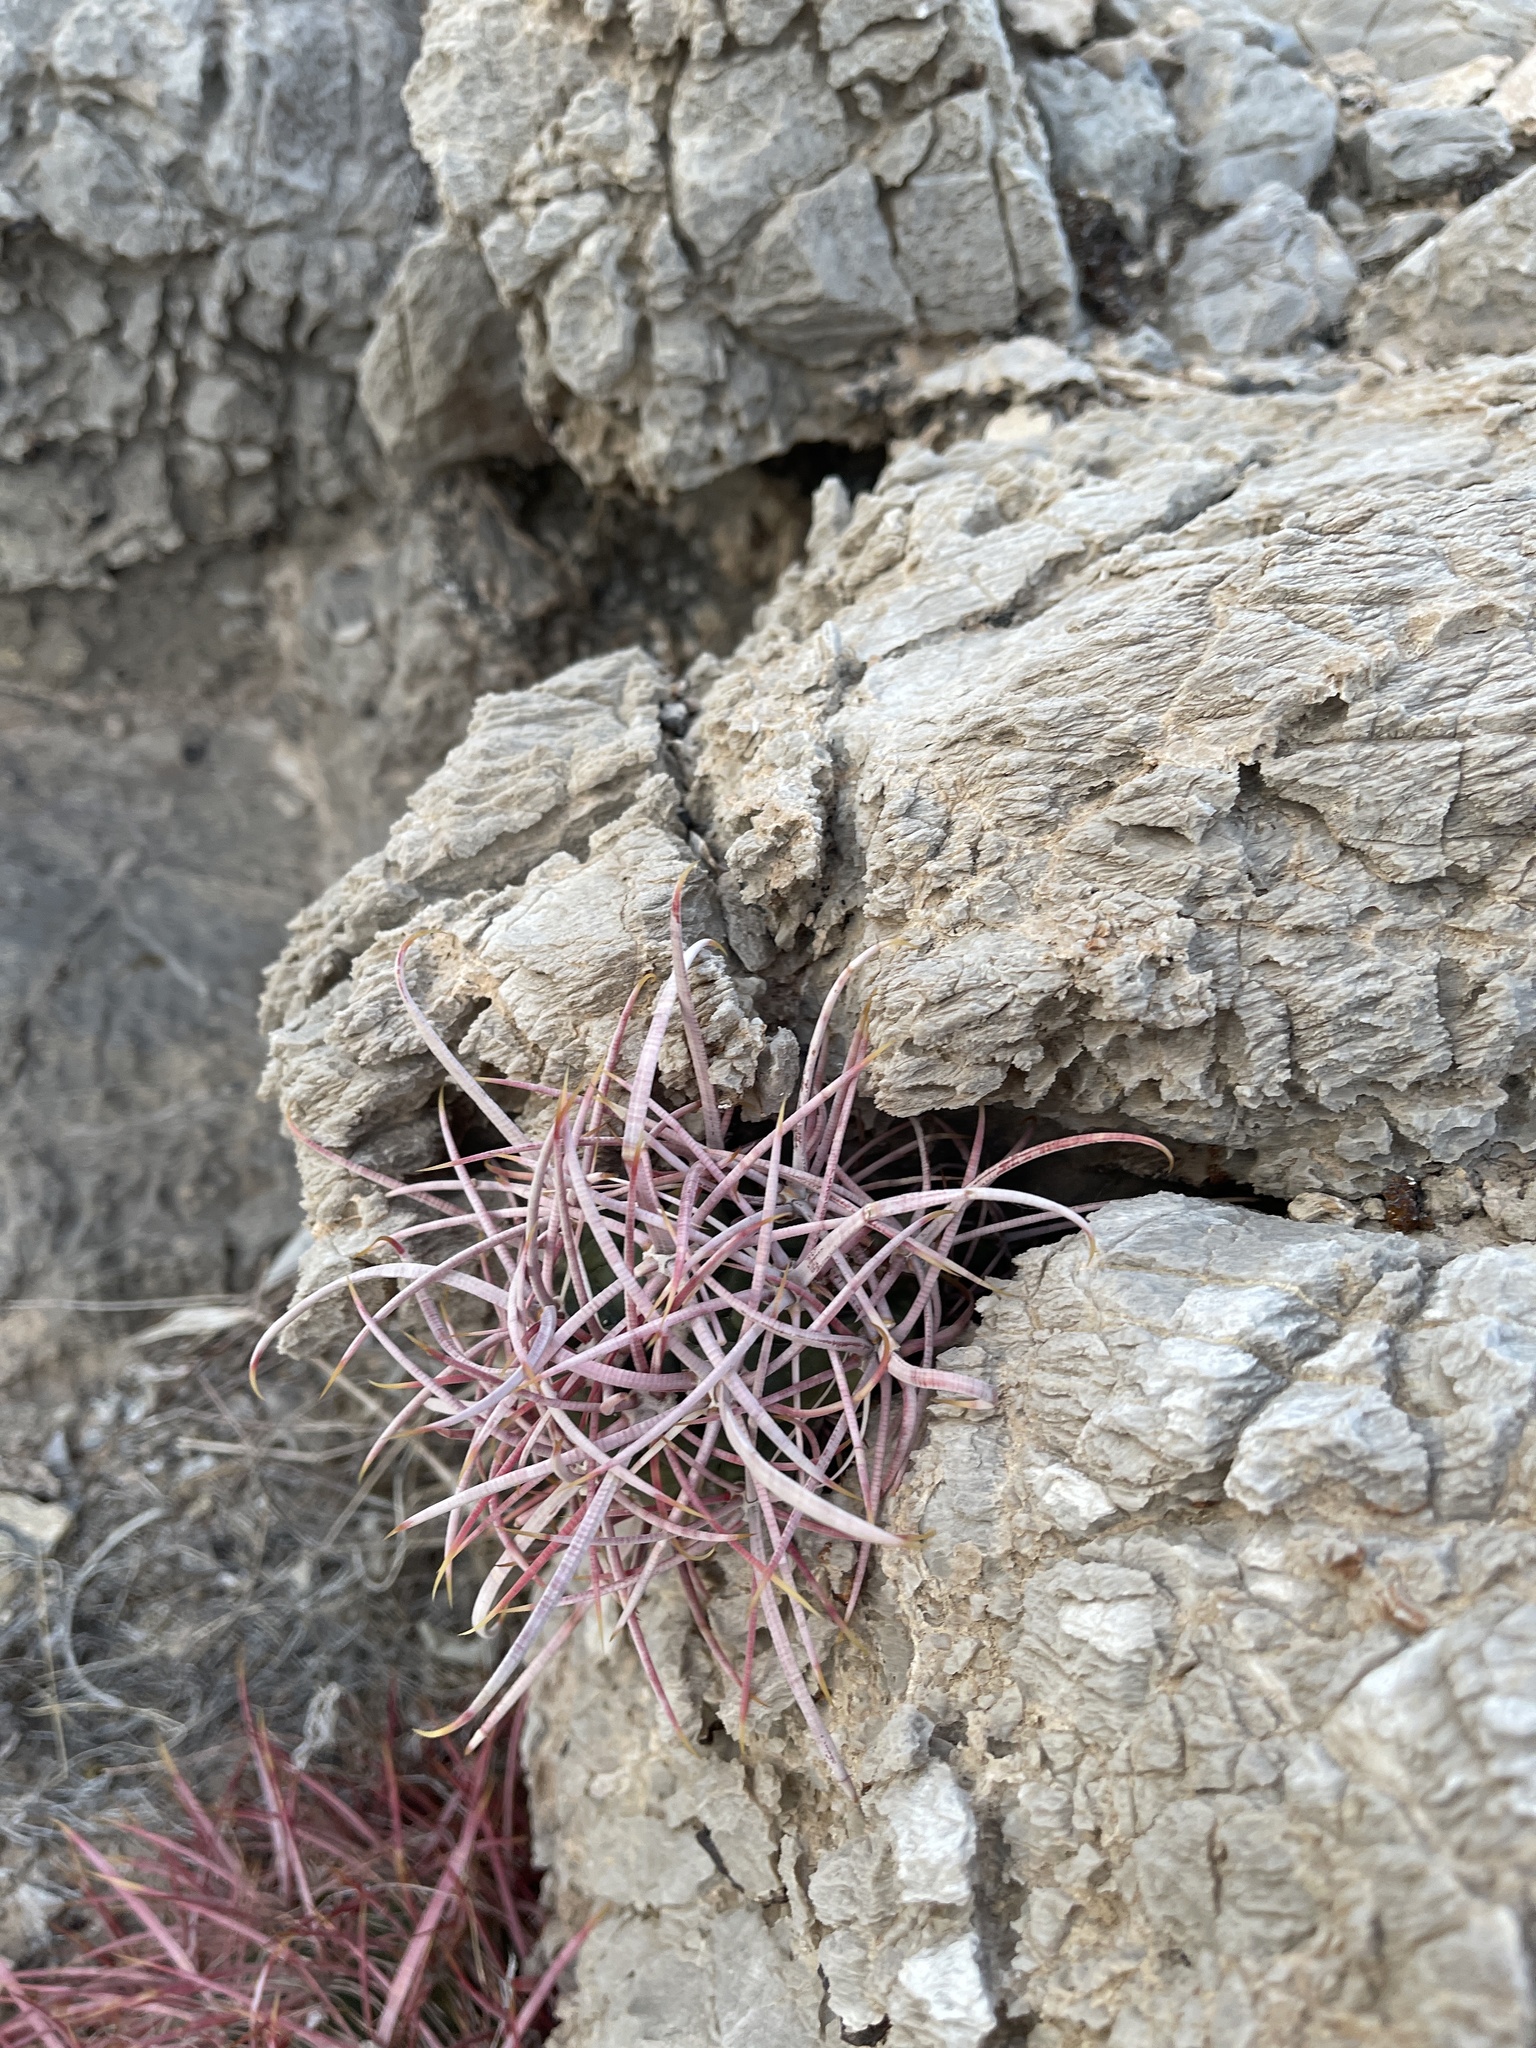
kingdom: Plantae
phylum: Tracheophyta
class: Magnoliopsida
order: Caryophyllales
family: Cactaceae
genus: Ferocactus
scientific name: Ferocactus cylindraceus
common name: California barrel cactus
